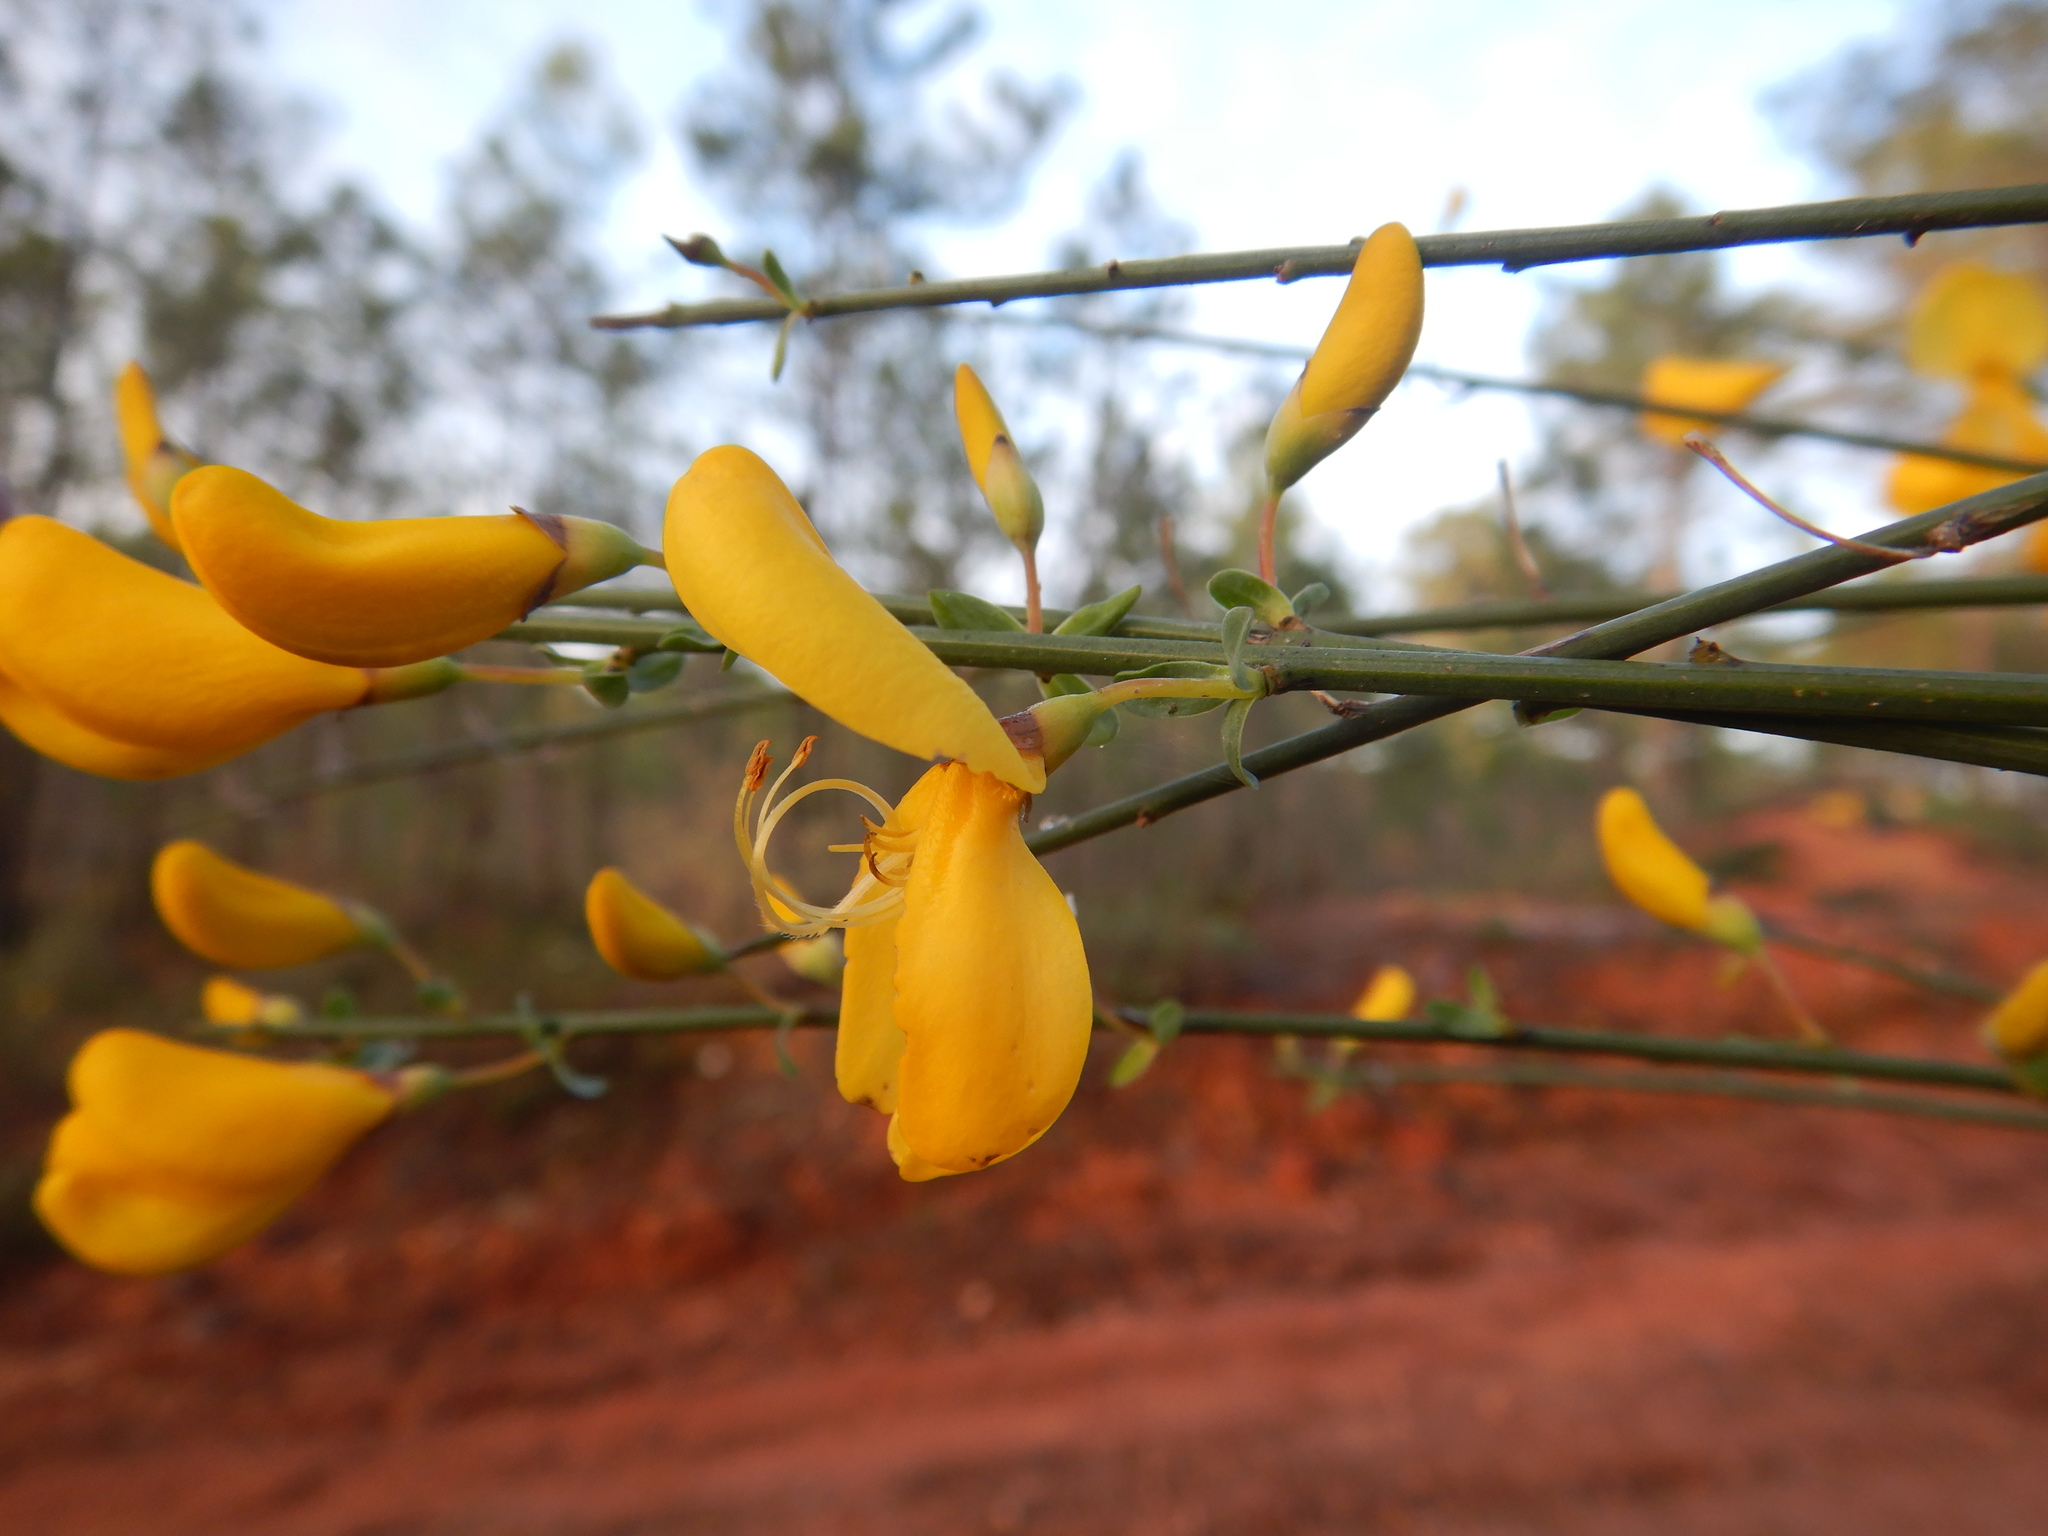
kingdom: Plantae
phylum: Tracheophyta
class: Magnoliopsida
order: Fabales
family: Fabaceae
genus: Cytisus
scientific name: Cytisus grandiflorus
